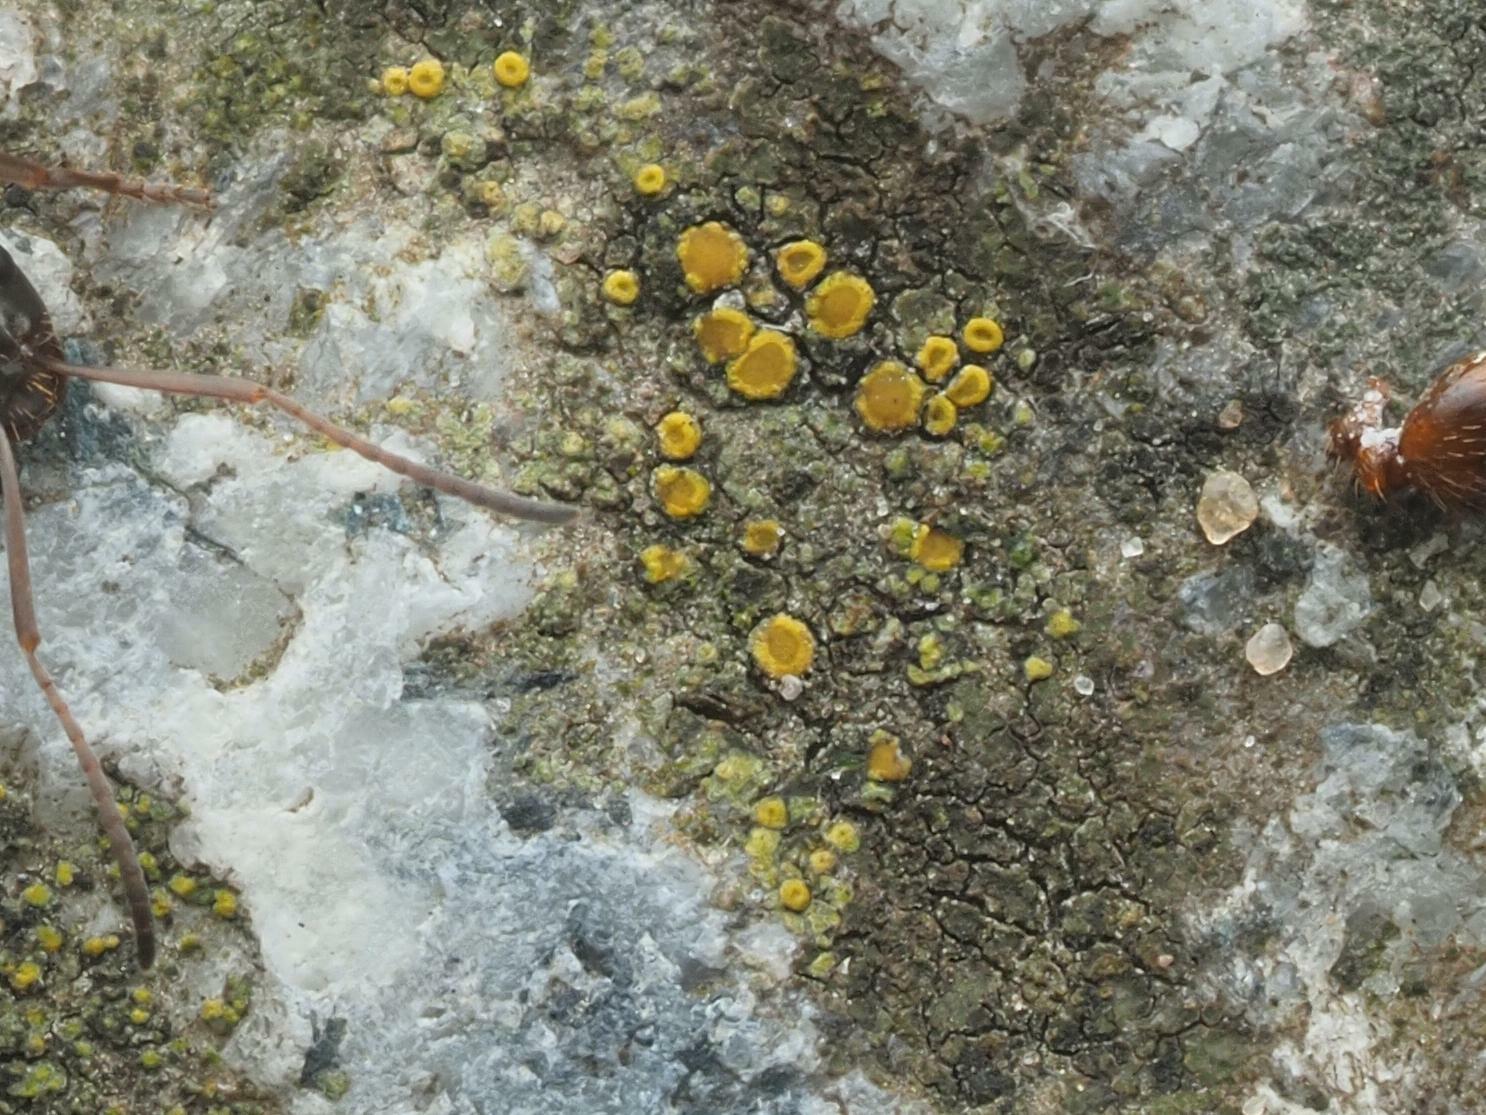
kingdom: Fungi
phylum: Ascomycota
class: Candelariomycetes
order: Candelariales
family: Candelariaceae
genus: Candelariella
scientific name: Candelariella vitellina
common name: Common goldspeck
